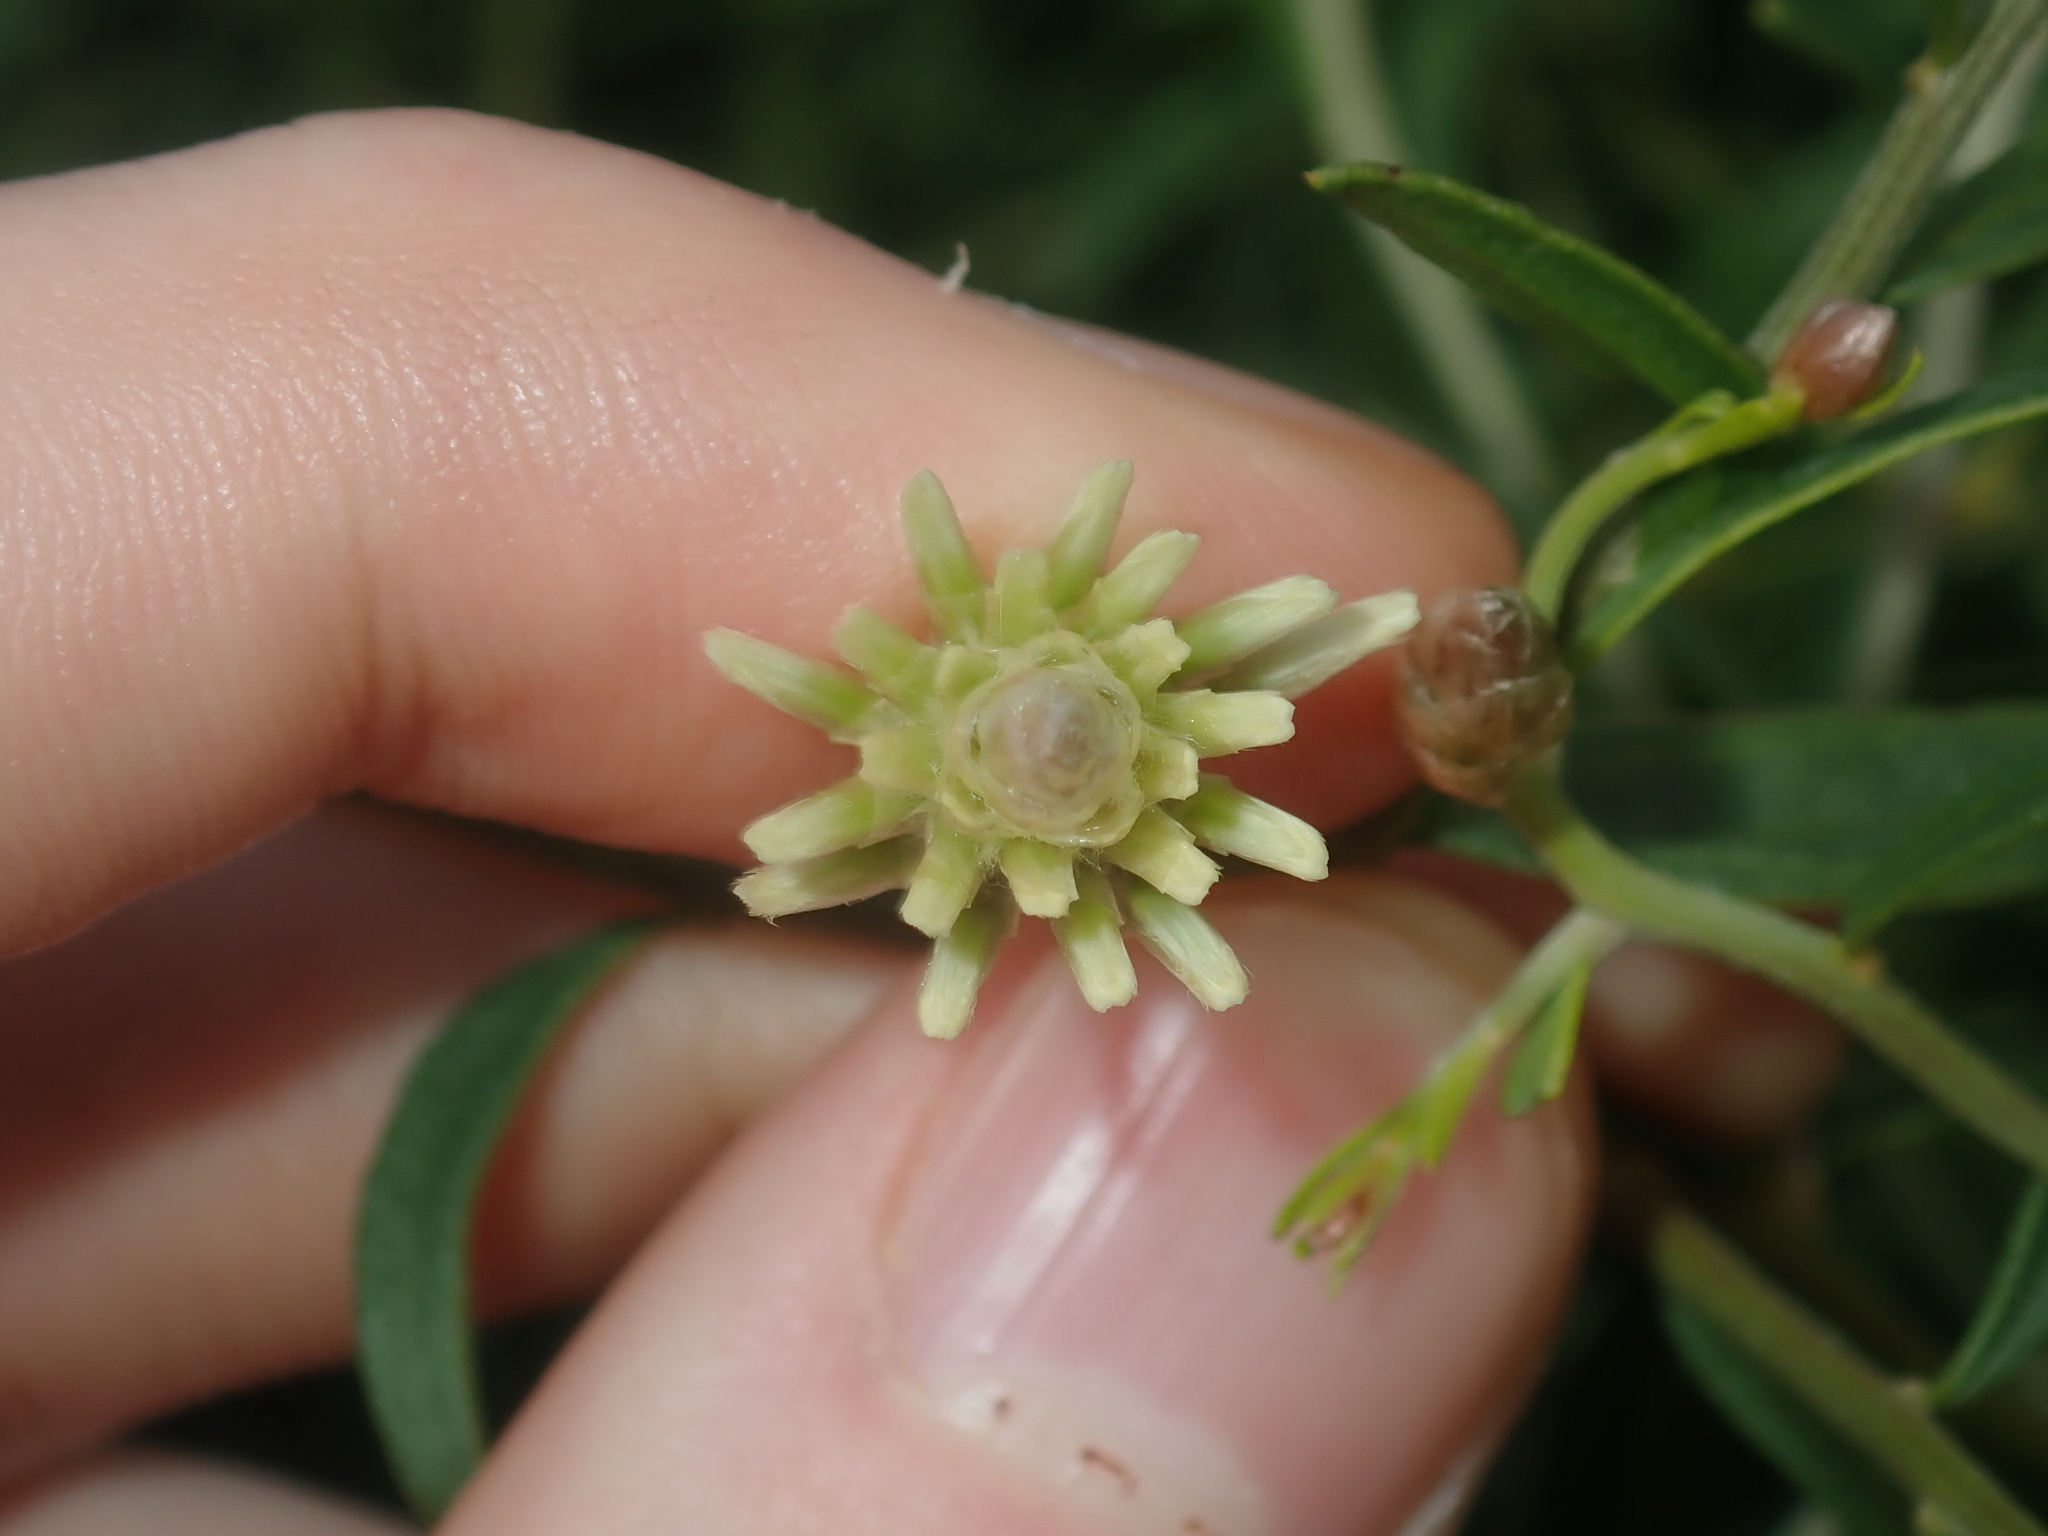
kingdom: Plantae
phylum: Tracheophyta
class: Magnoliopsida
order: Caryophyllales
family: Amaranthaceae
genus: Ptilotus
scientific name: Ptilotus divaricatus
